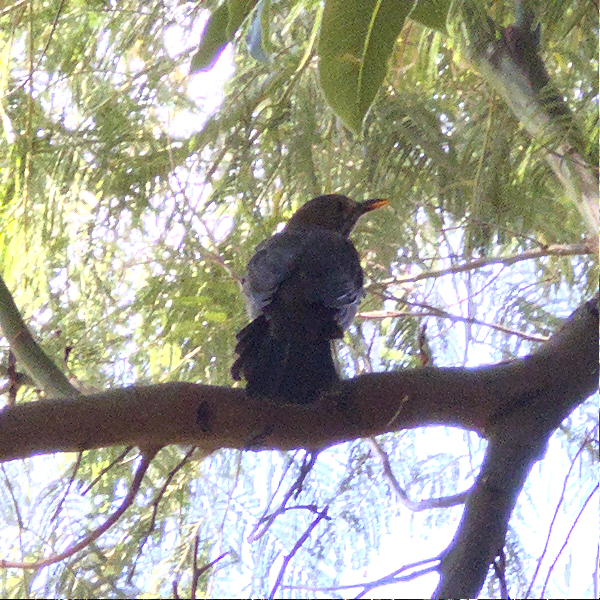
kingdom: Animalia
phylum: Chordata
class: Aves
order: Passeriformes
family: Turdidae
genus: Turdus
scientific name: Turdus merula
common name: Common blackbird
